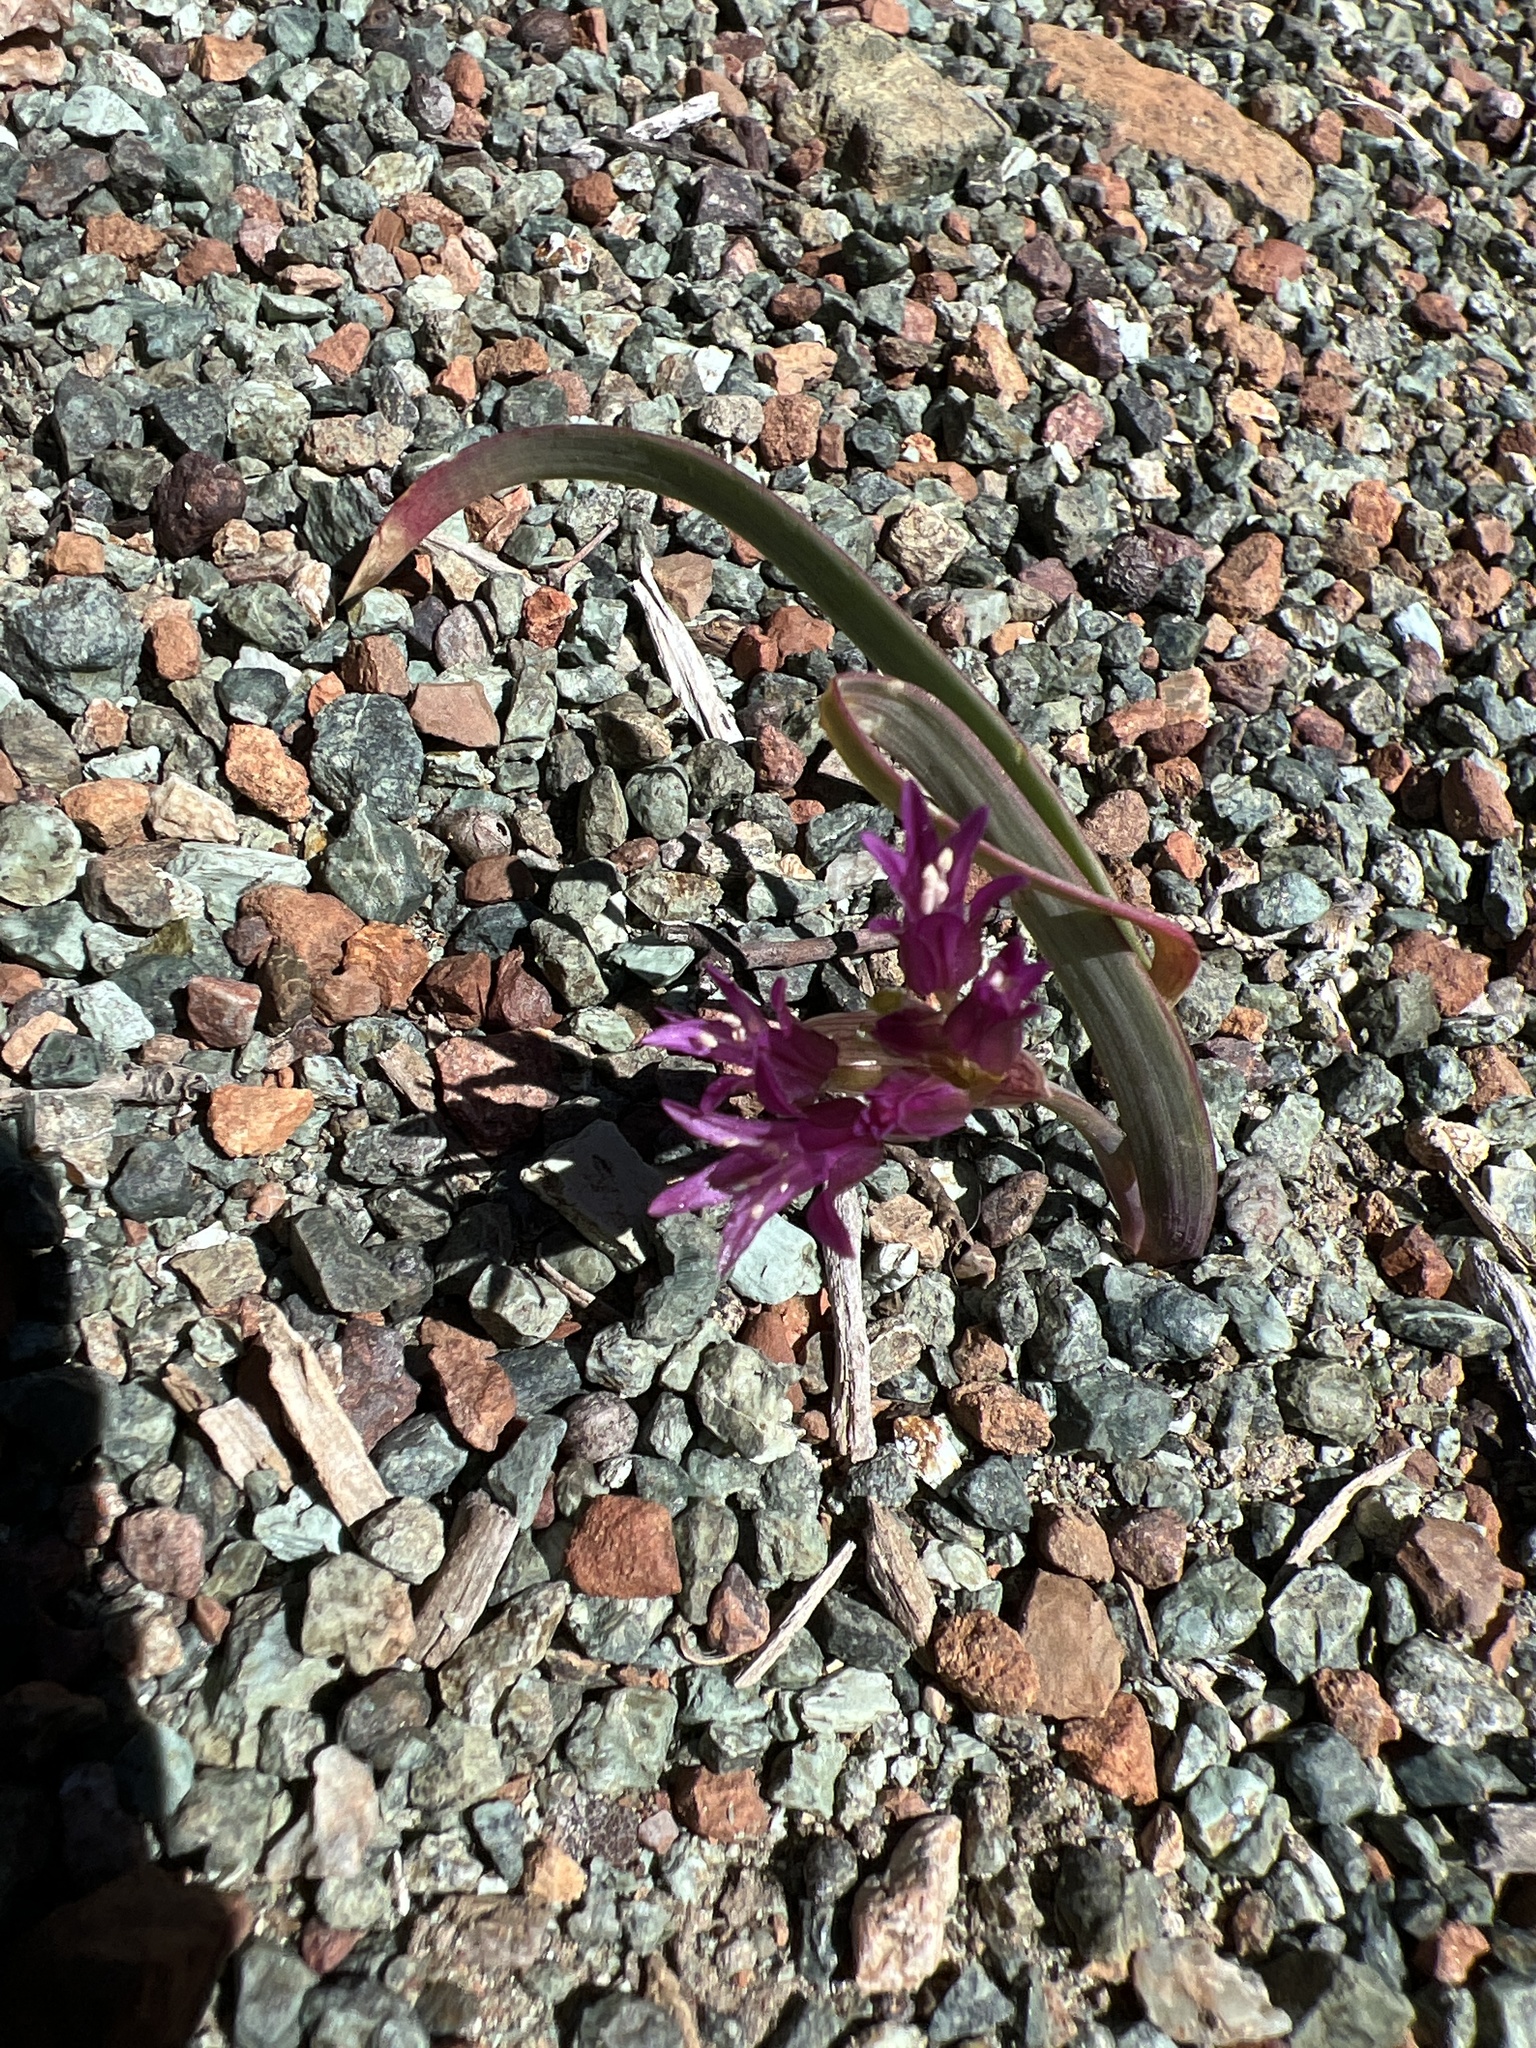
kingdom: Plantae
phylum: Tracheophyta
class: Liliopsida
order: Asparagales
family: Amaryllidaceae
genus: Allium
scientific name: Allium falcifolium
